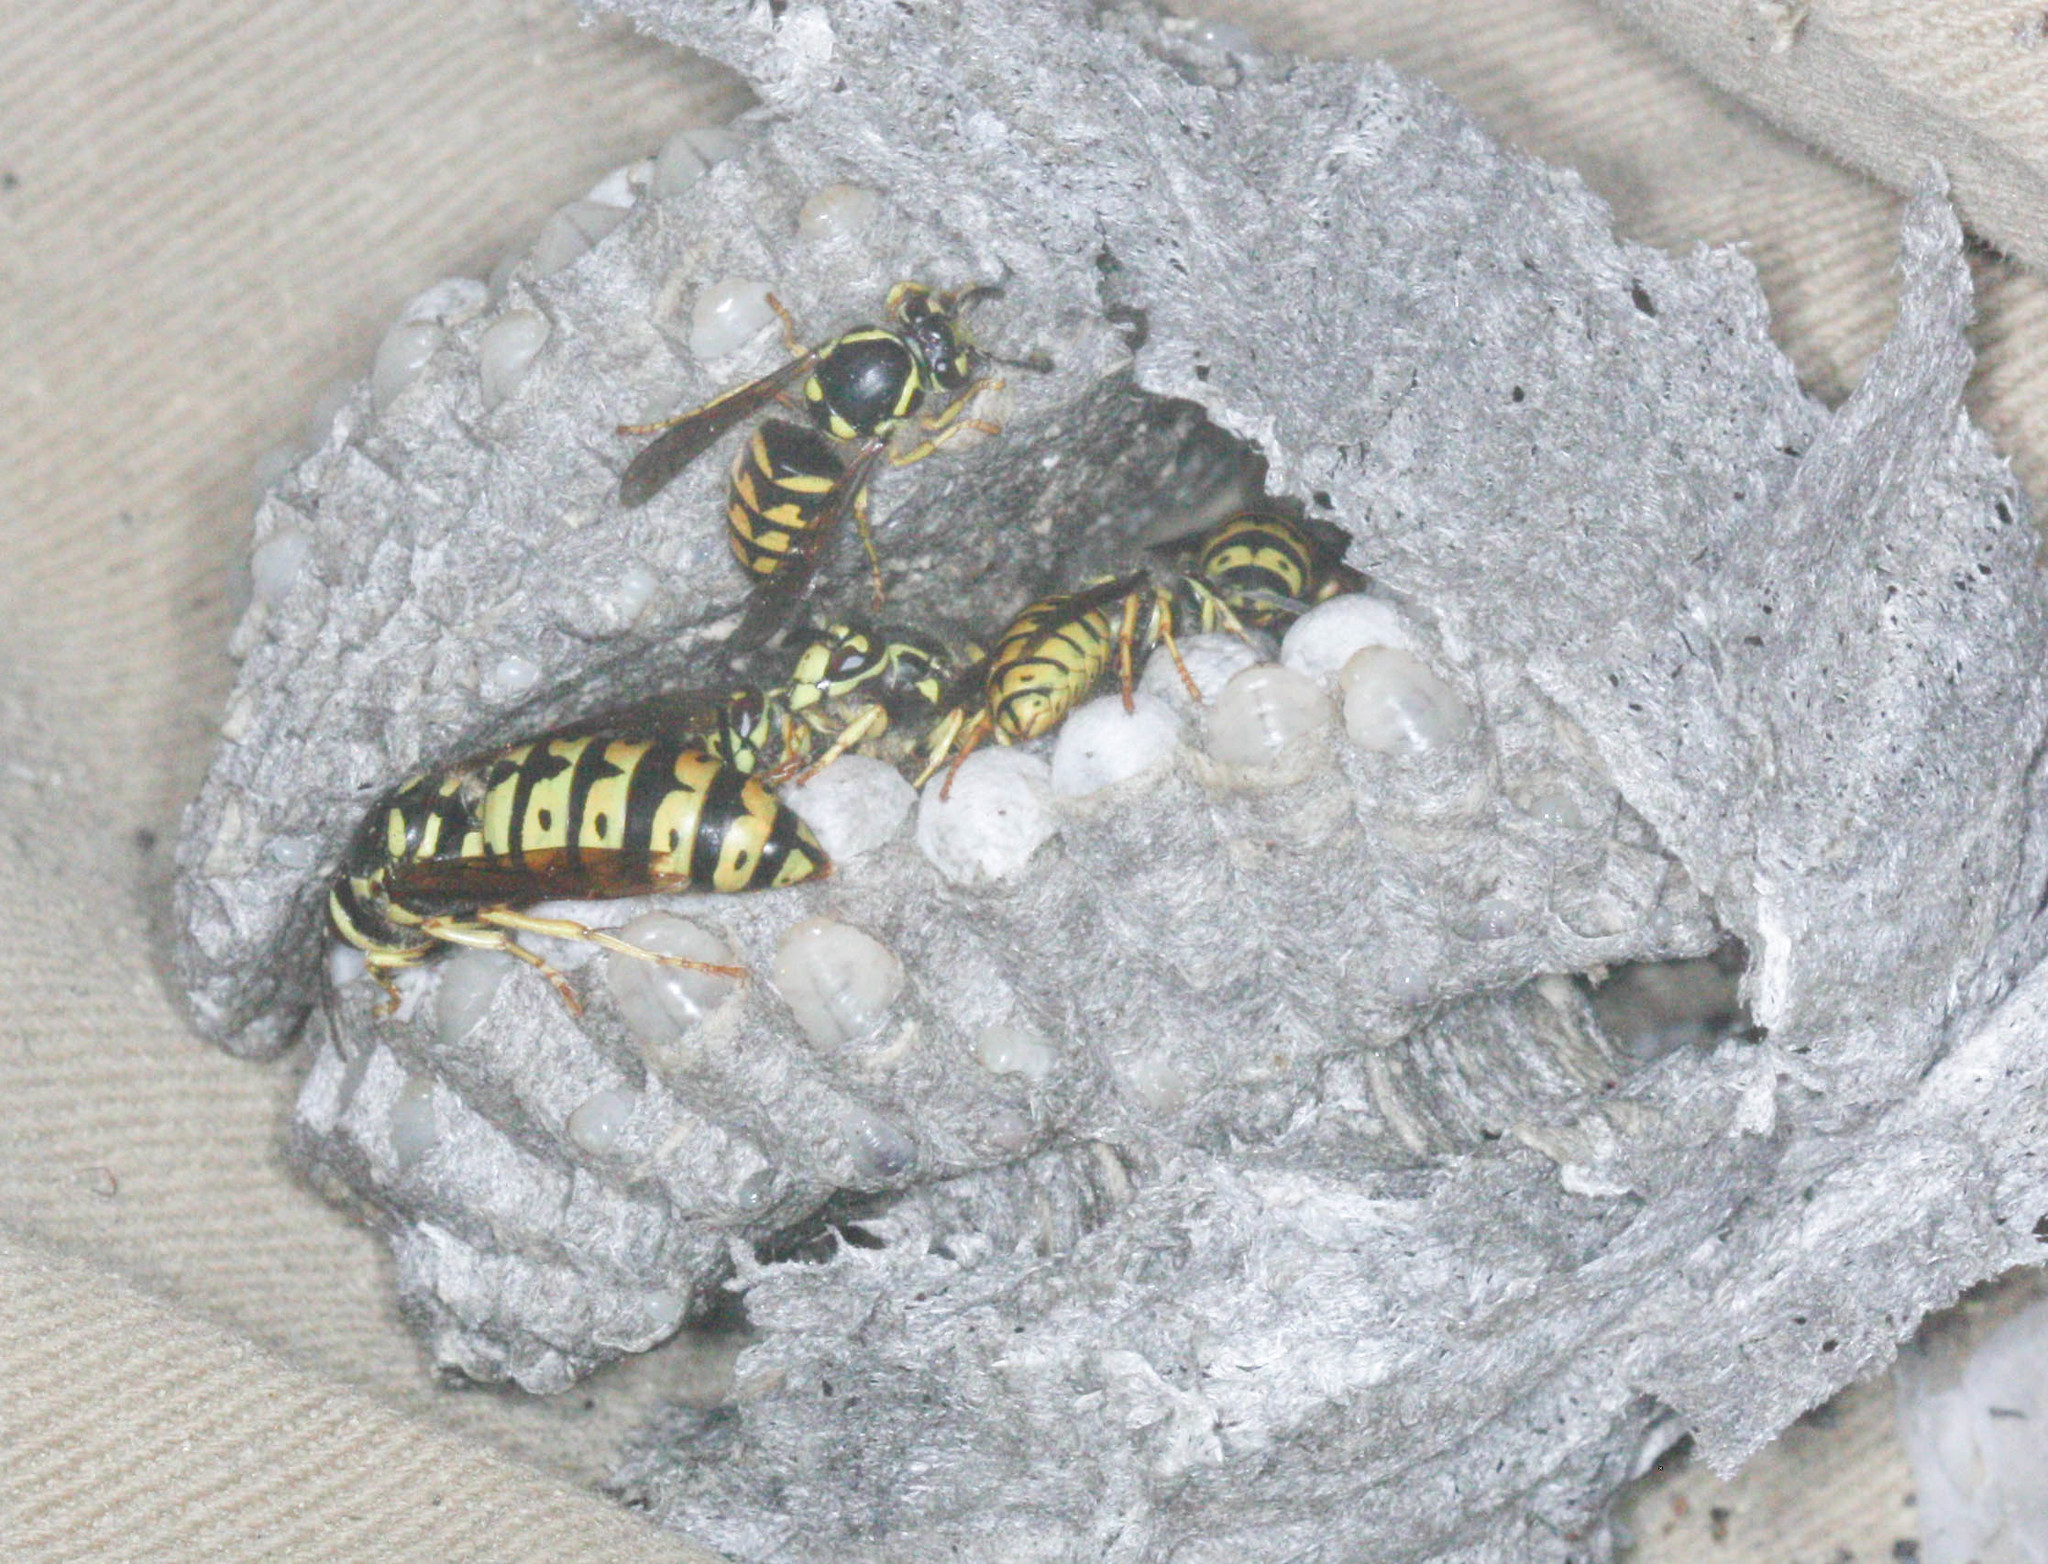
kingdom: Animalia
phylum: Arthropoda
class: Insecta
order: Hymenoptera
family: Vespidae
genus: Dolichovespula
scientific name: Dolichovespula arenaria
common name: Aerial yellowjacket
